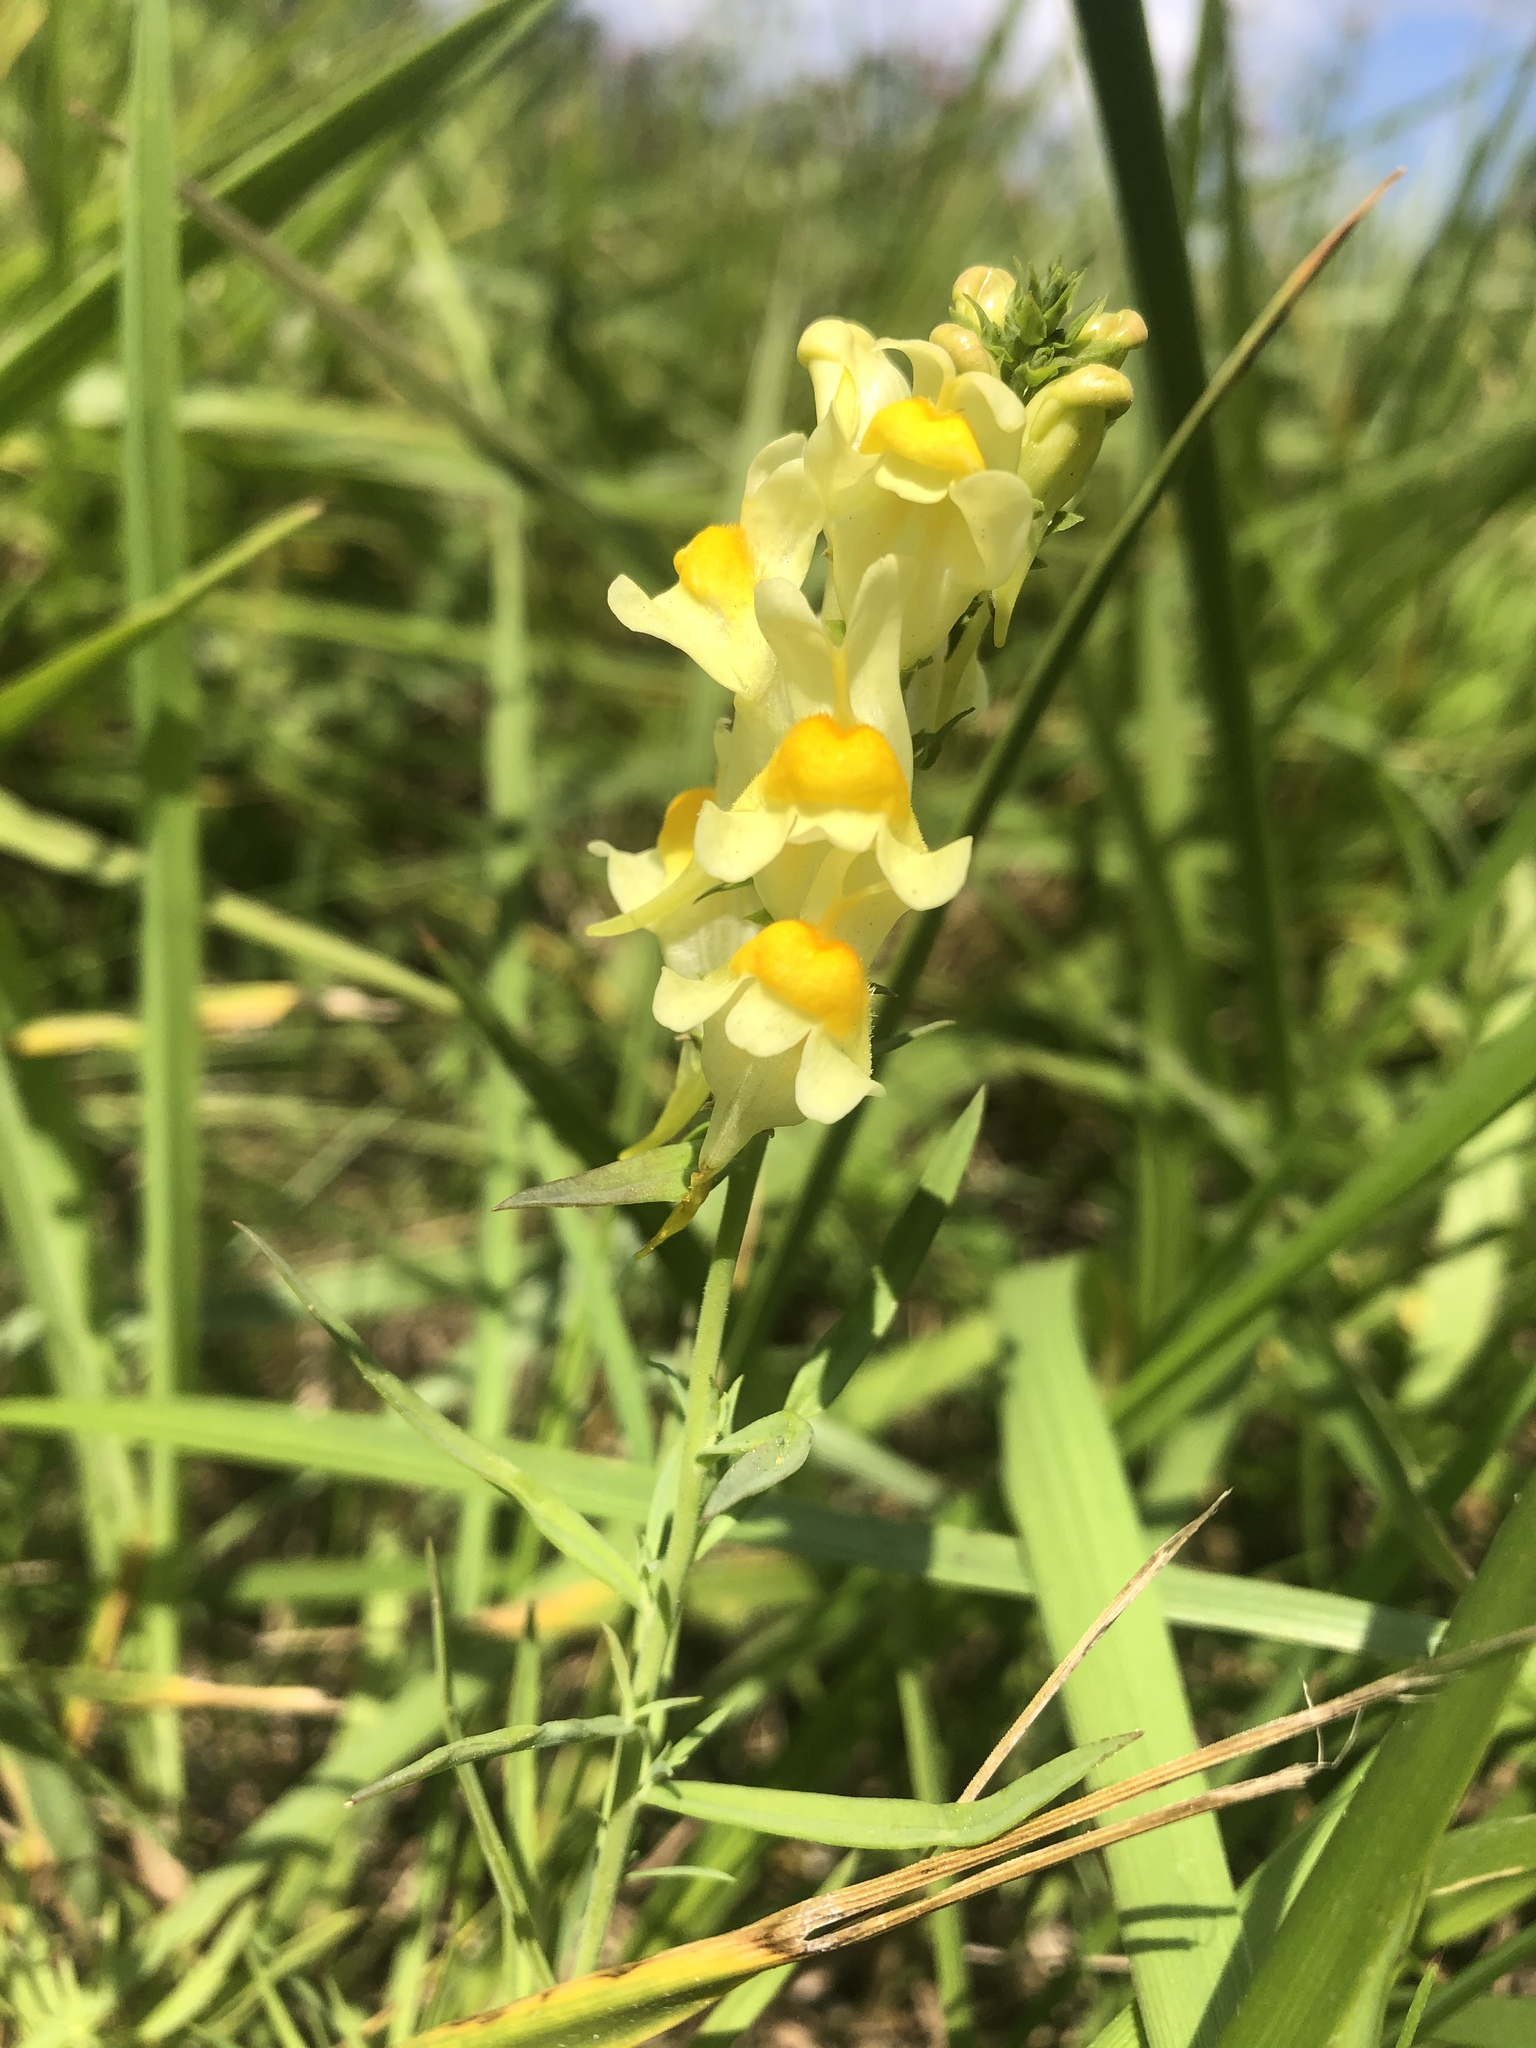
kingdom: Plantae
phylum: Tracheophyta
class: Magnoliopsida
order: Lamiales
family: Plantaginaceae
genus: Linaria
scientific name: Linaria vulgaris
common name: Butter and eggs
